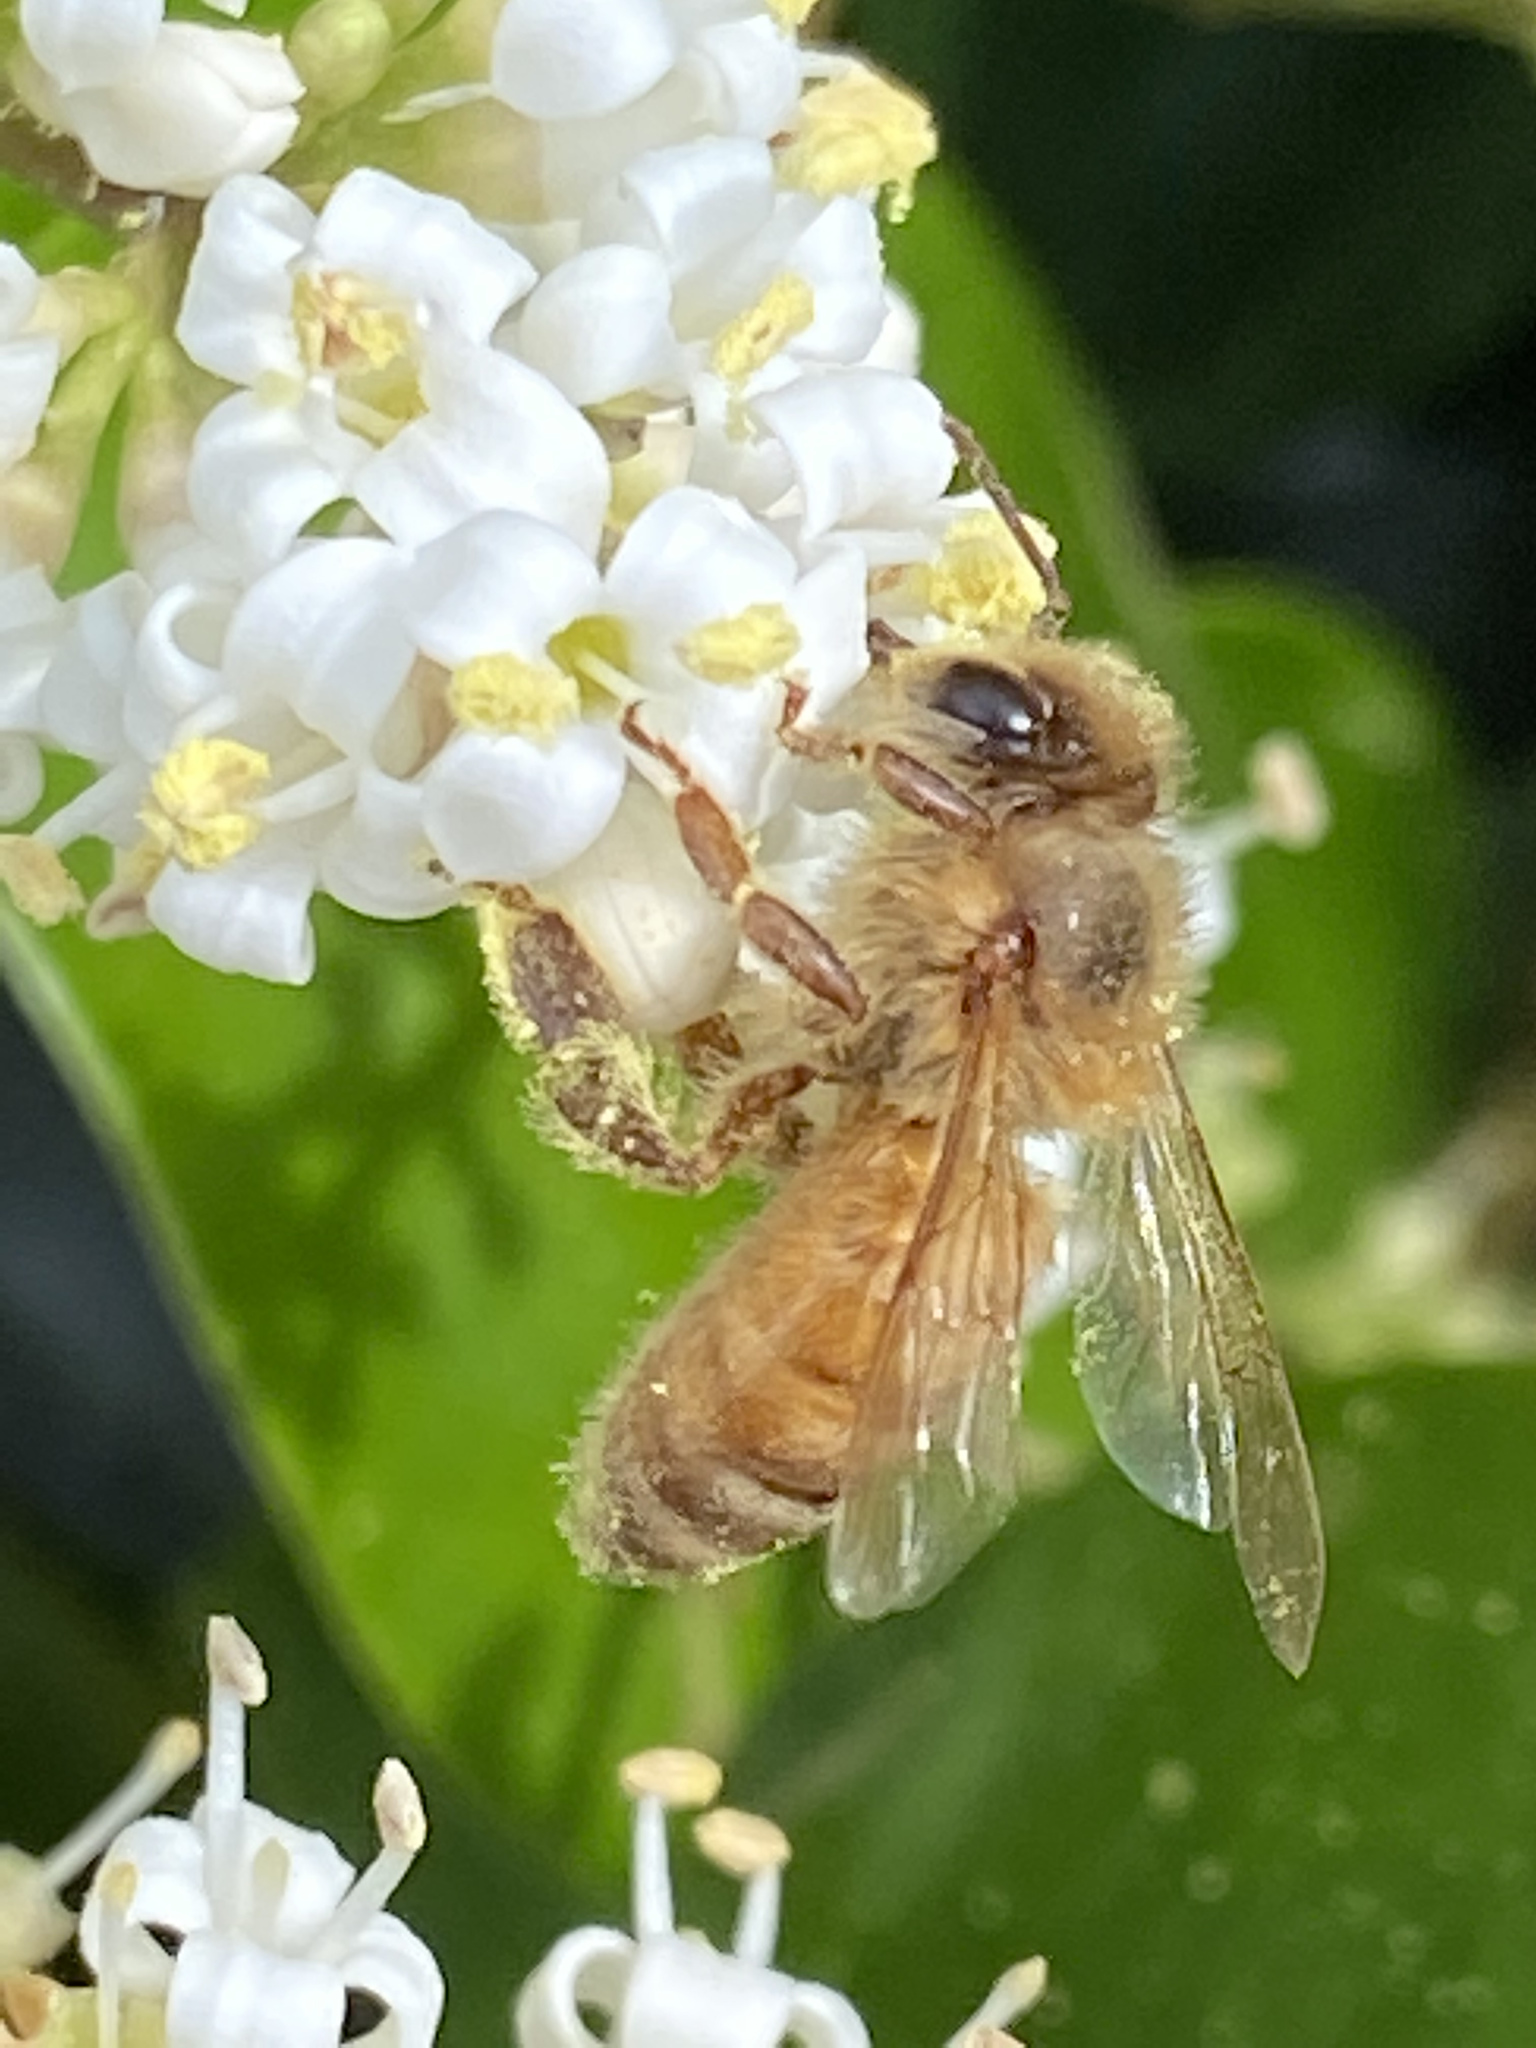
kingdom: Animalia
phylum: Arthropoda
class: Insecta
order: Hymenoptera
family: Apidae
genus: Apis
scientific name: Apis mellifera
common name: Honey bee
